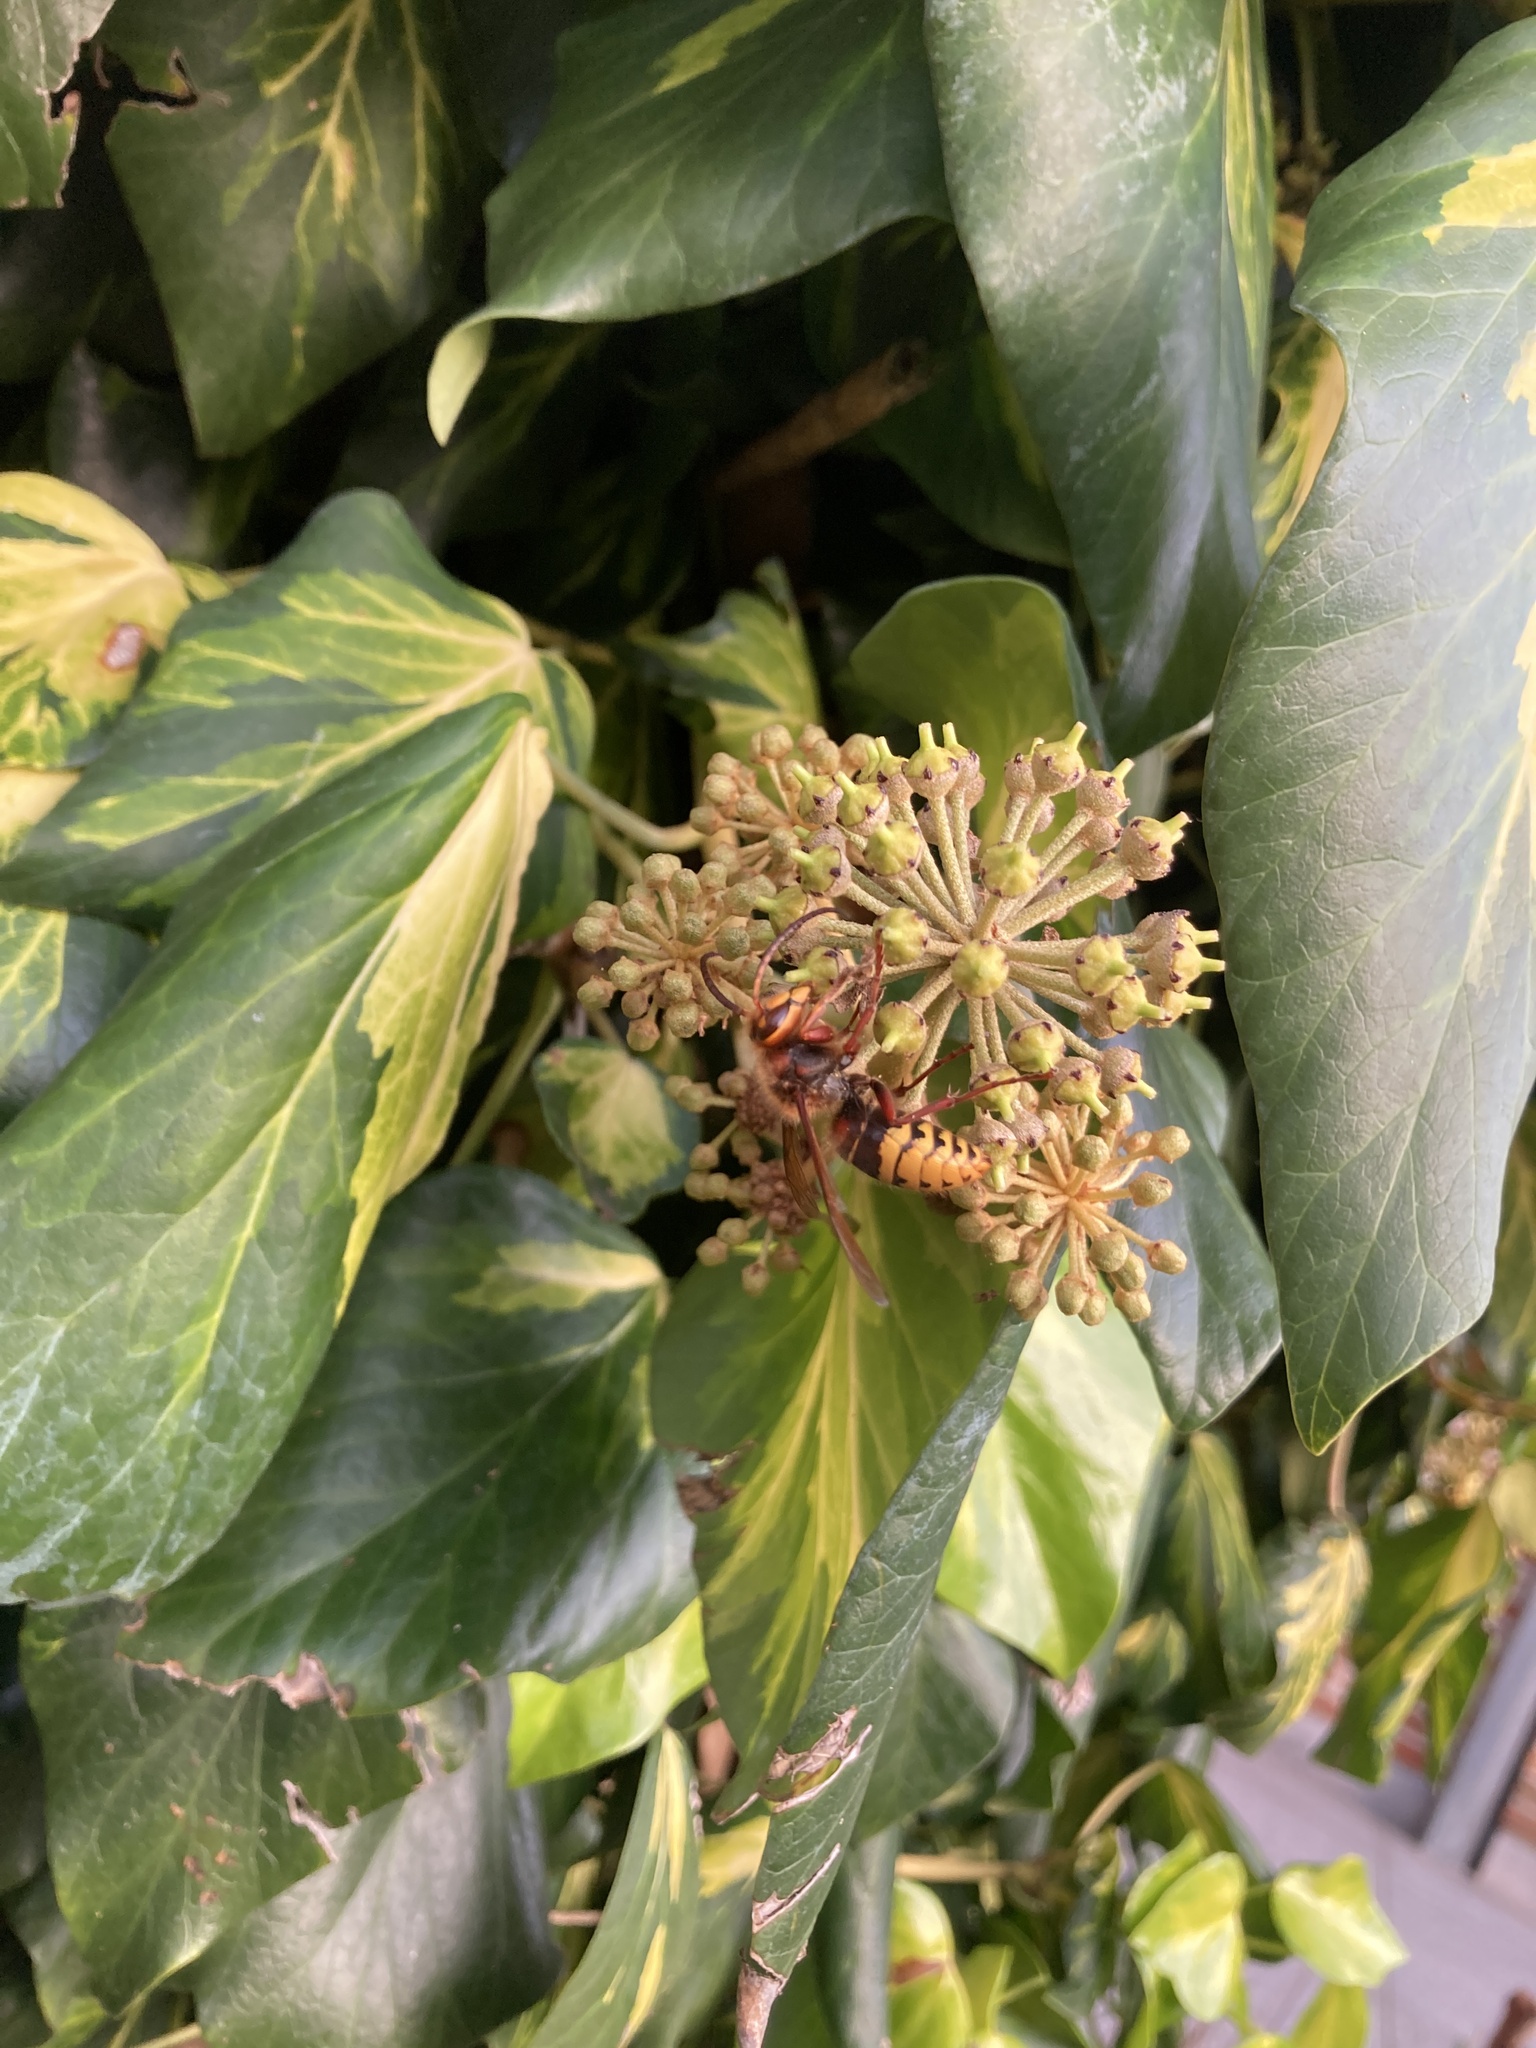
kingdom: Animalia
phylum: Arthropoda
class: Insecta
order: Hymenoptera
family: Vespidae
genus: Vespa
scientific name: Vespa velutina
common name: Asian hornet
